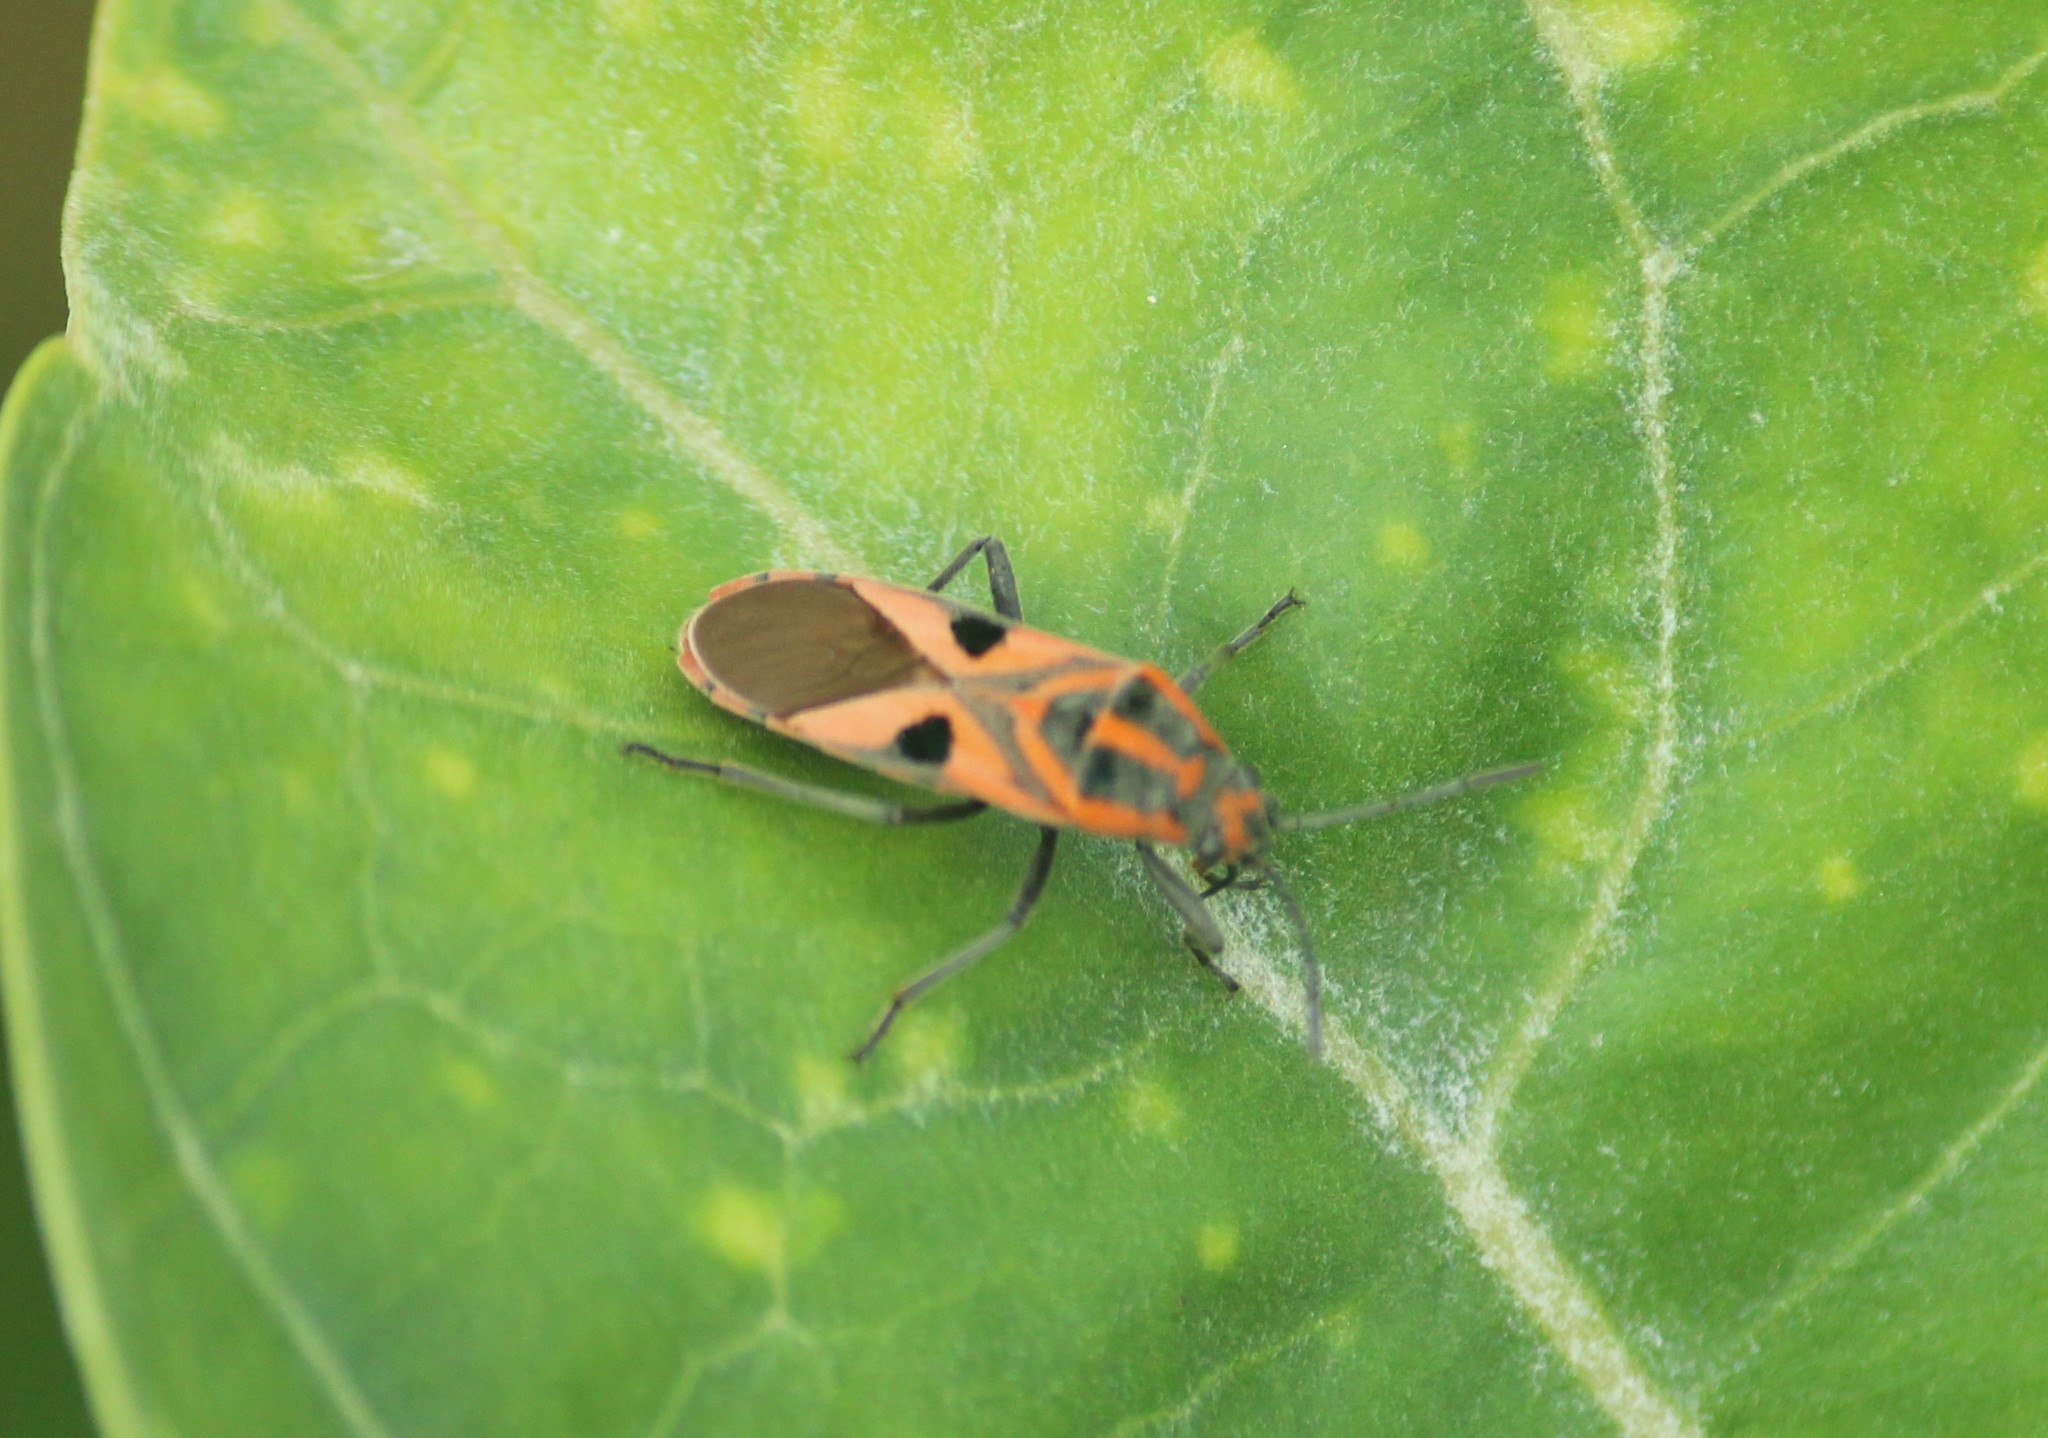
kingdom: Animalia
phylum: Arthropoda
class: Insecta
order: Hemiptera
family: Lygaeidae
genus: Spilostethus
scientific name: Spilostethus hospes
